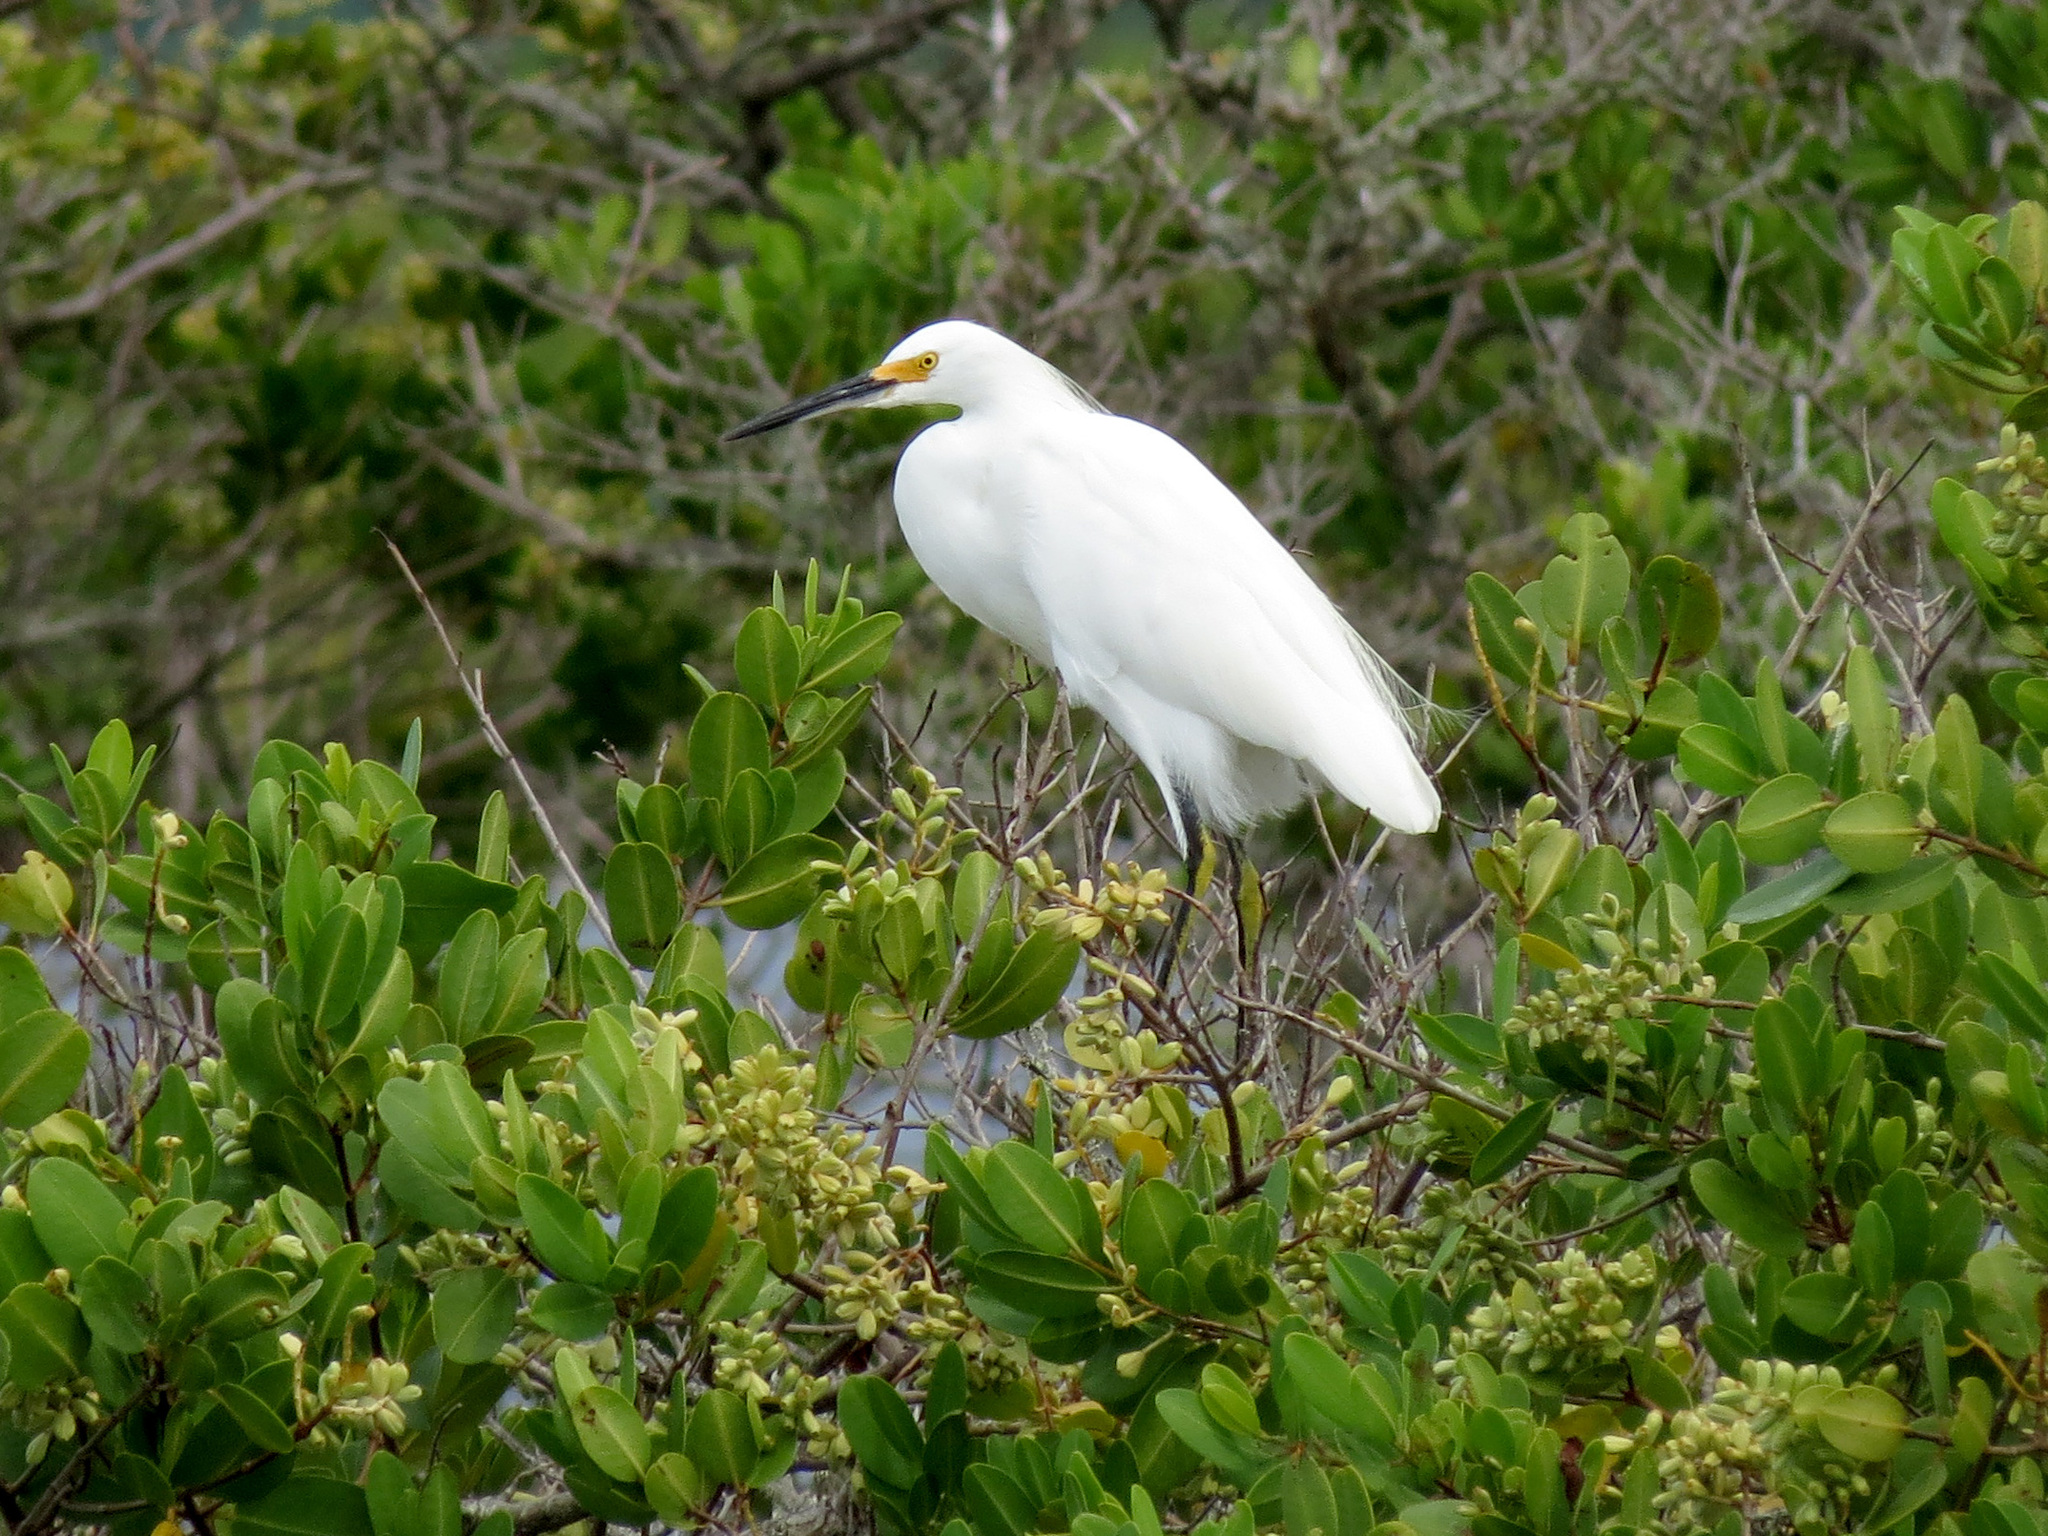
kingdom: Animalia
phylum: Chordata
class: Aves
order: Pelecaniformes
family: Ardeidae
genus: Egretta
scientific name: Egretta thula
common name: Snowy egret
